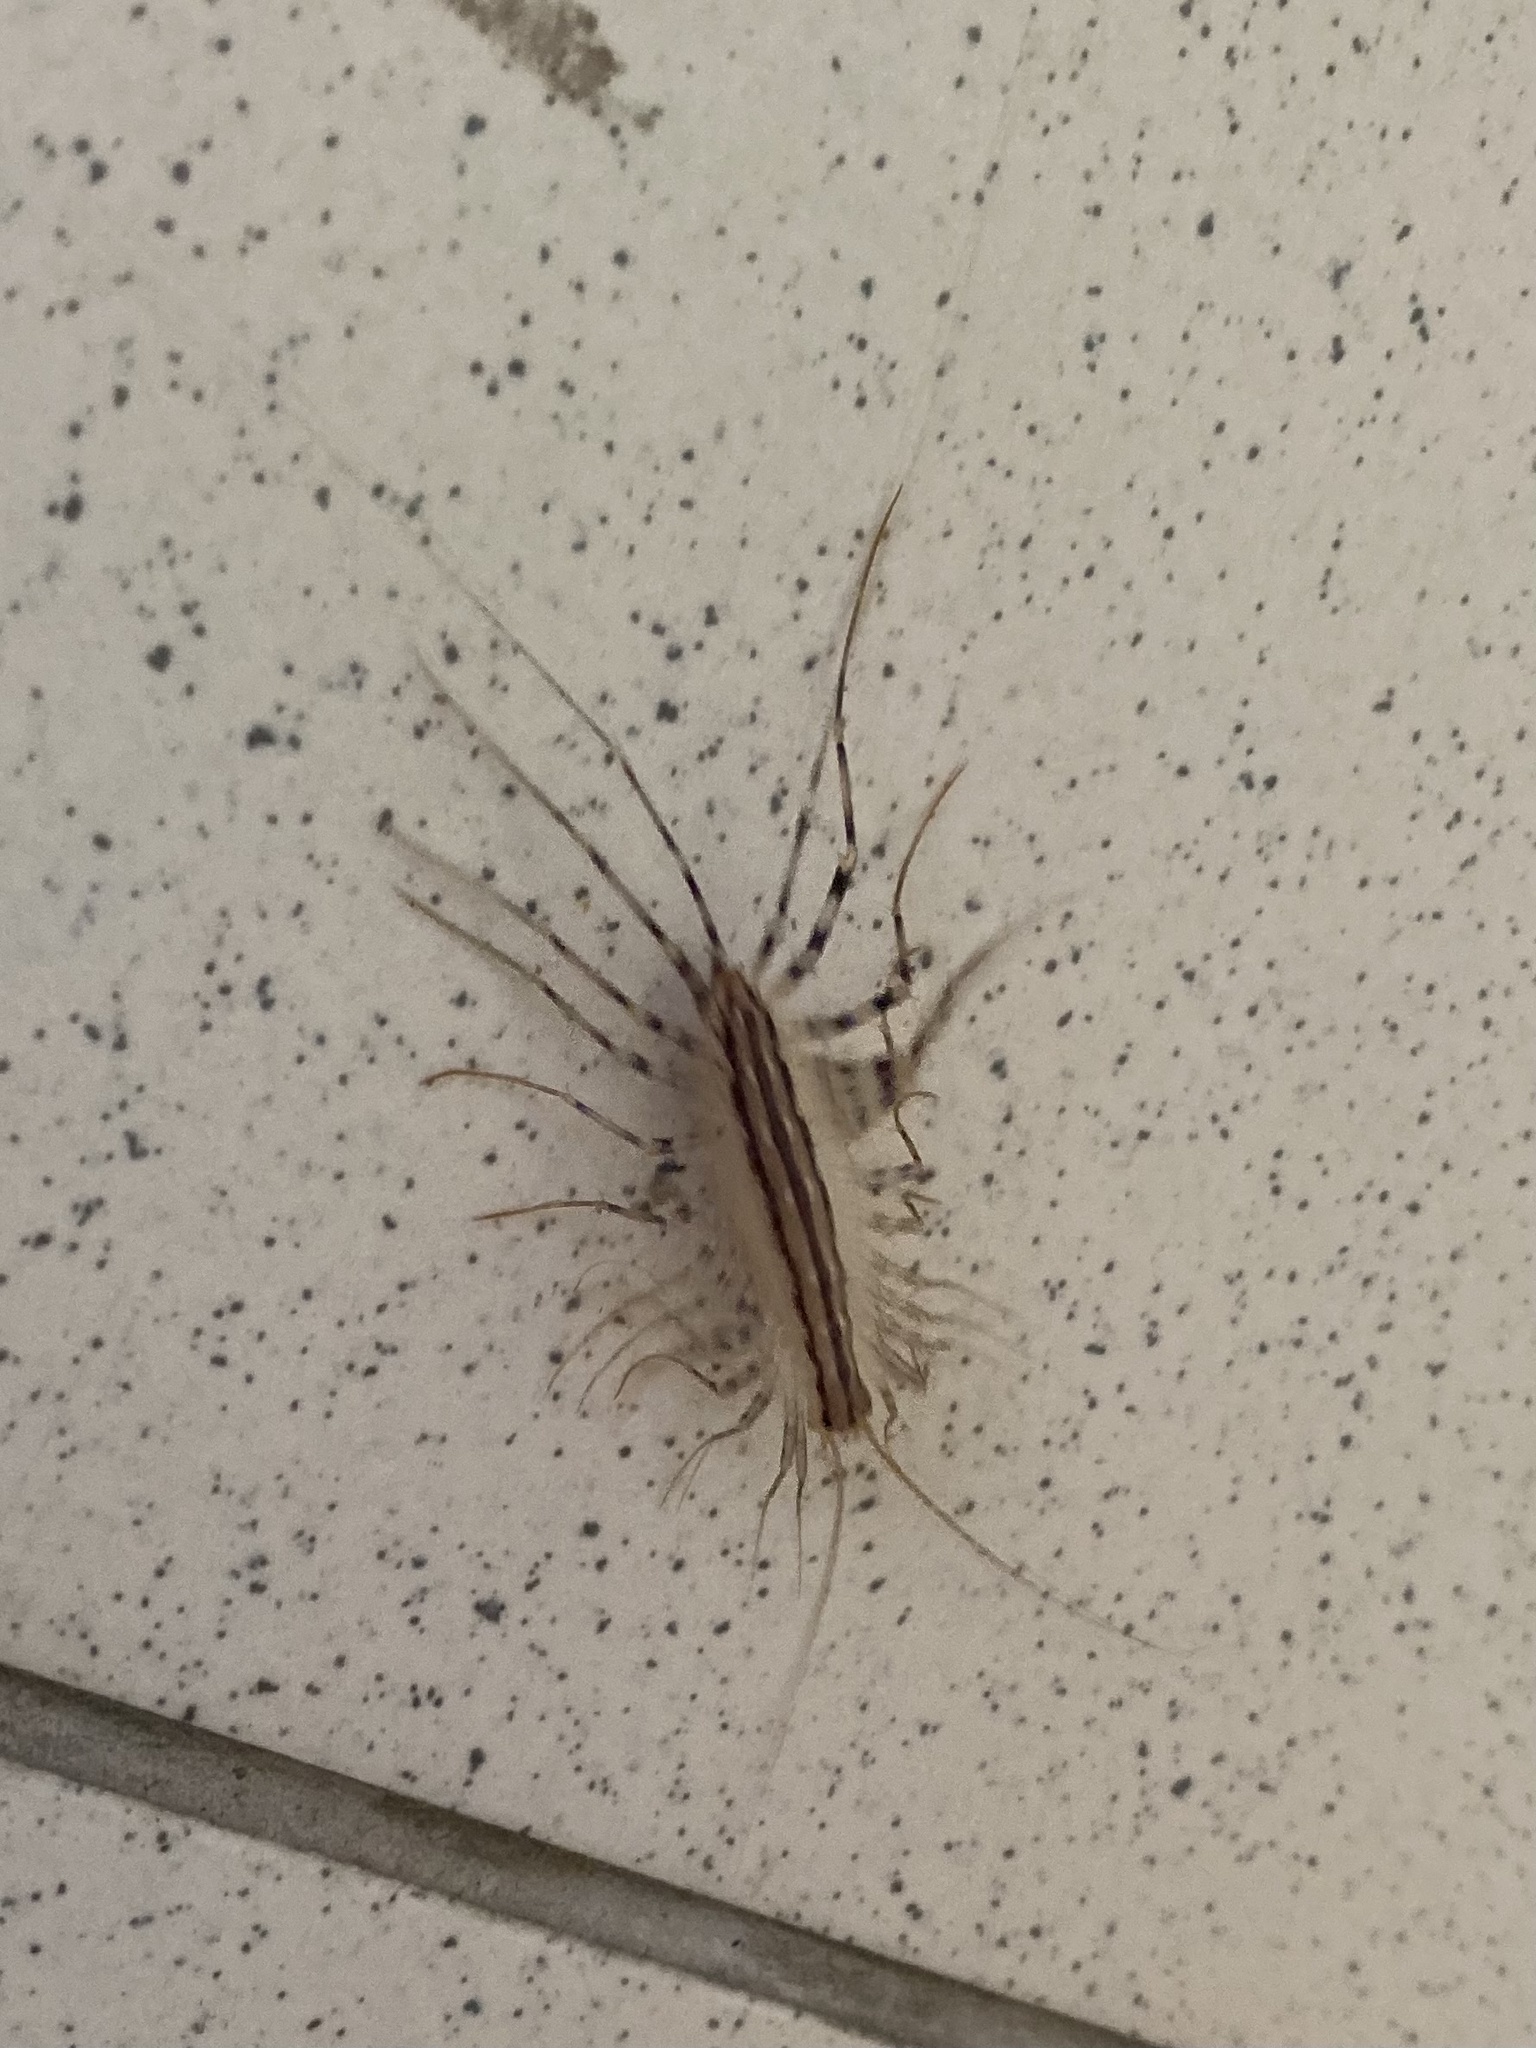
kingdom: Animalia
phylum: Arthropoda
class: Chilopoda
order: Scutigeromorpha
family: Scutigeridae
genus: Scutigera
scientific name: Scutigera coleoptrata
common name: House centipede
